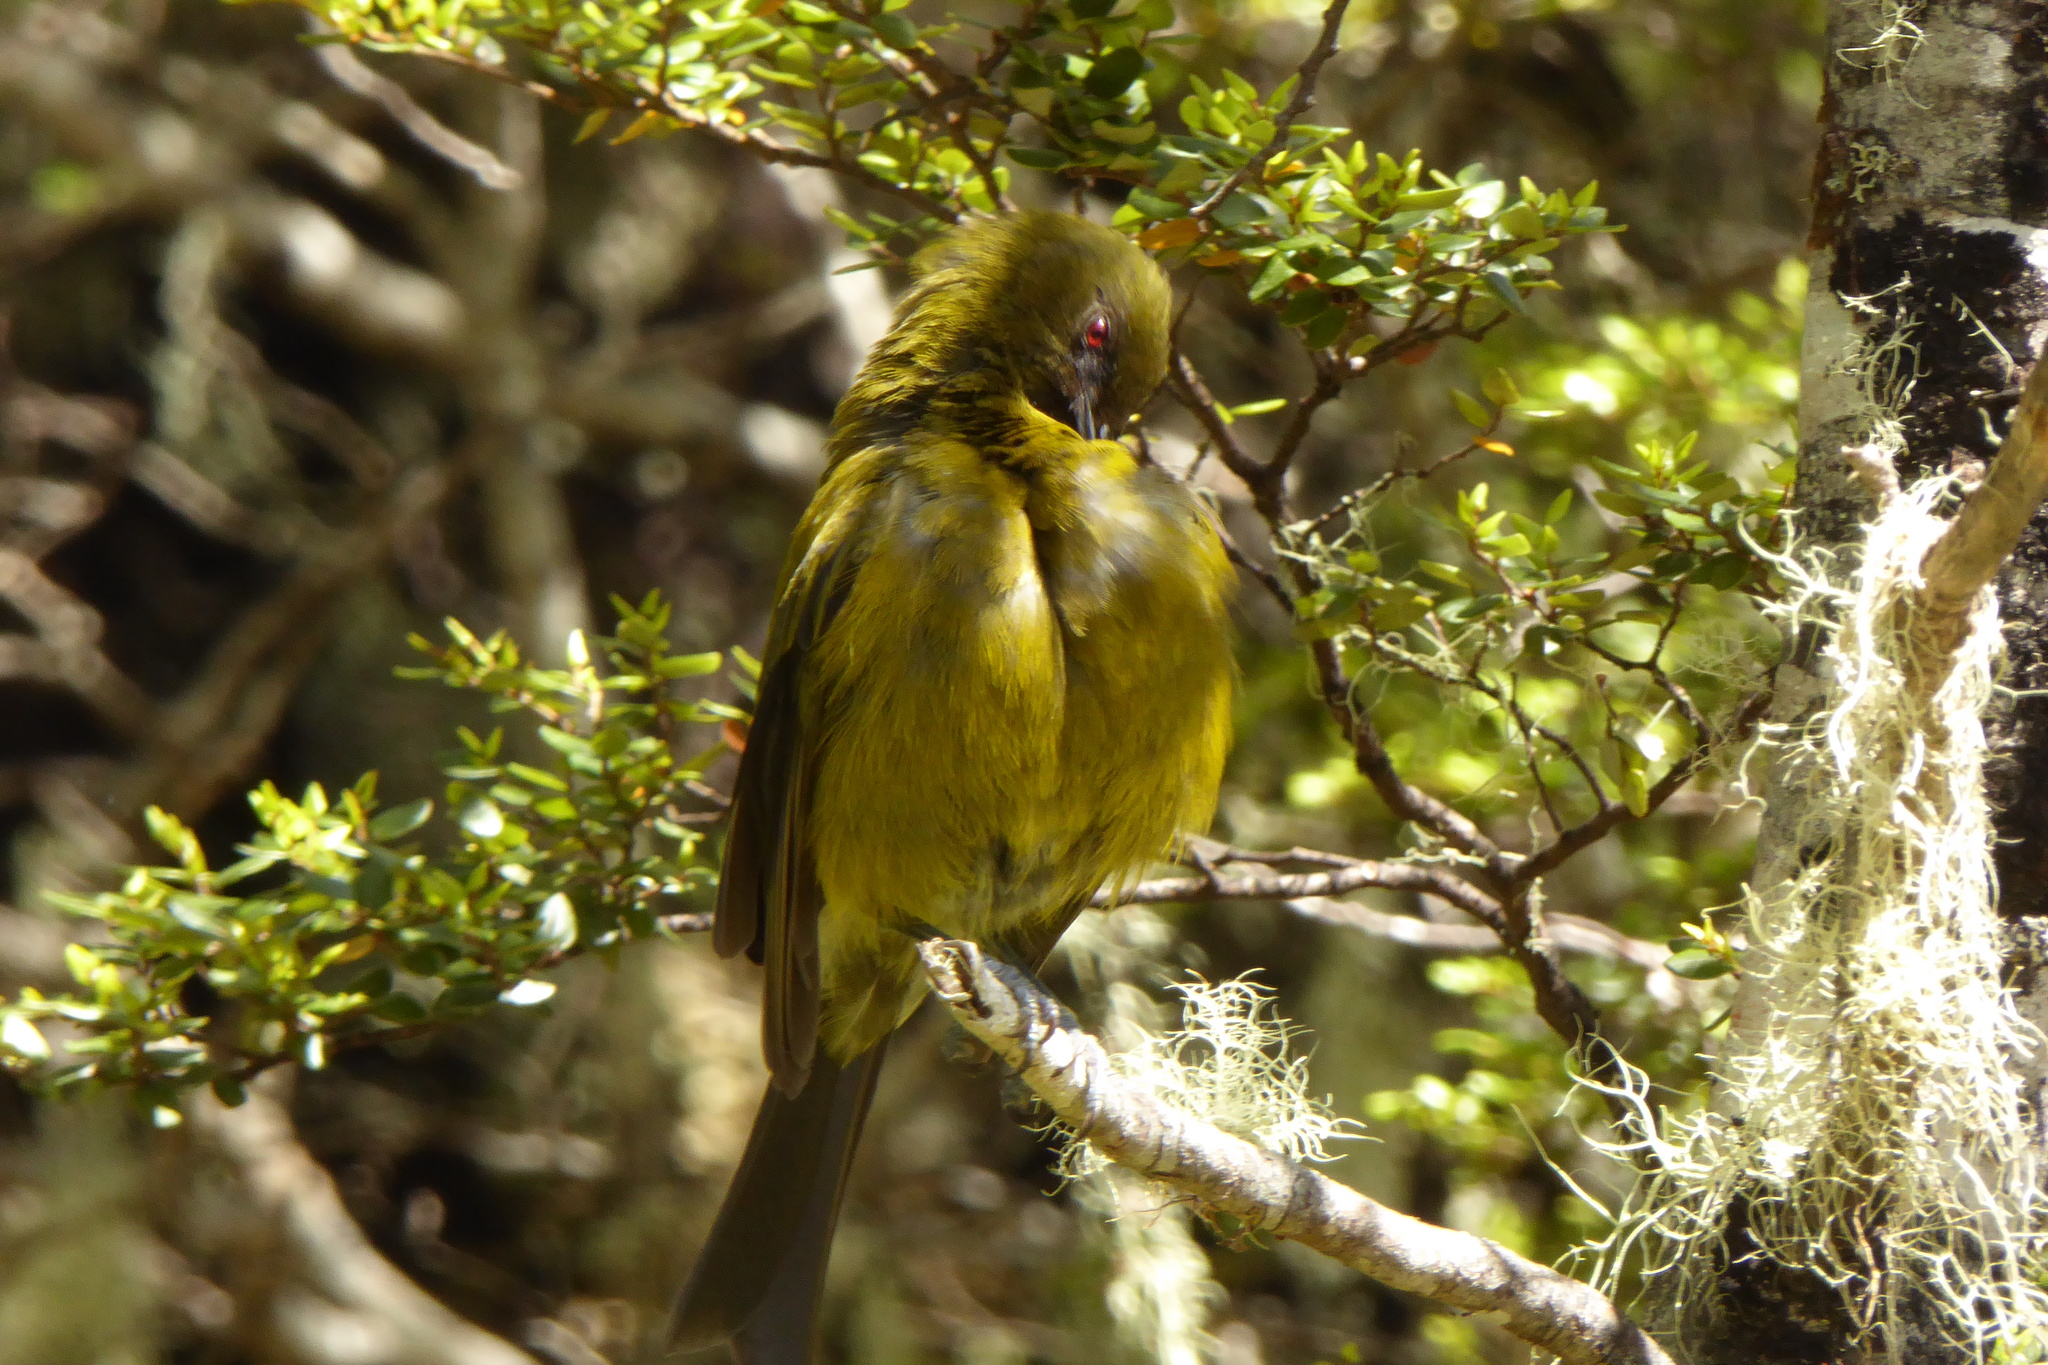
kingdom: Animalia
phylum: Chordata
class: Aves
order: Passeriformes
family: Meliphagidae
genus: Anthornis
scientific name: Anthornis melanura
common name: New zealand bellbird
